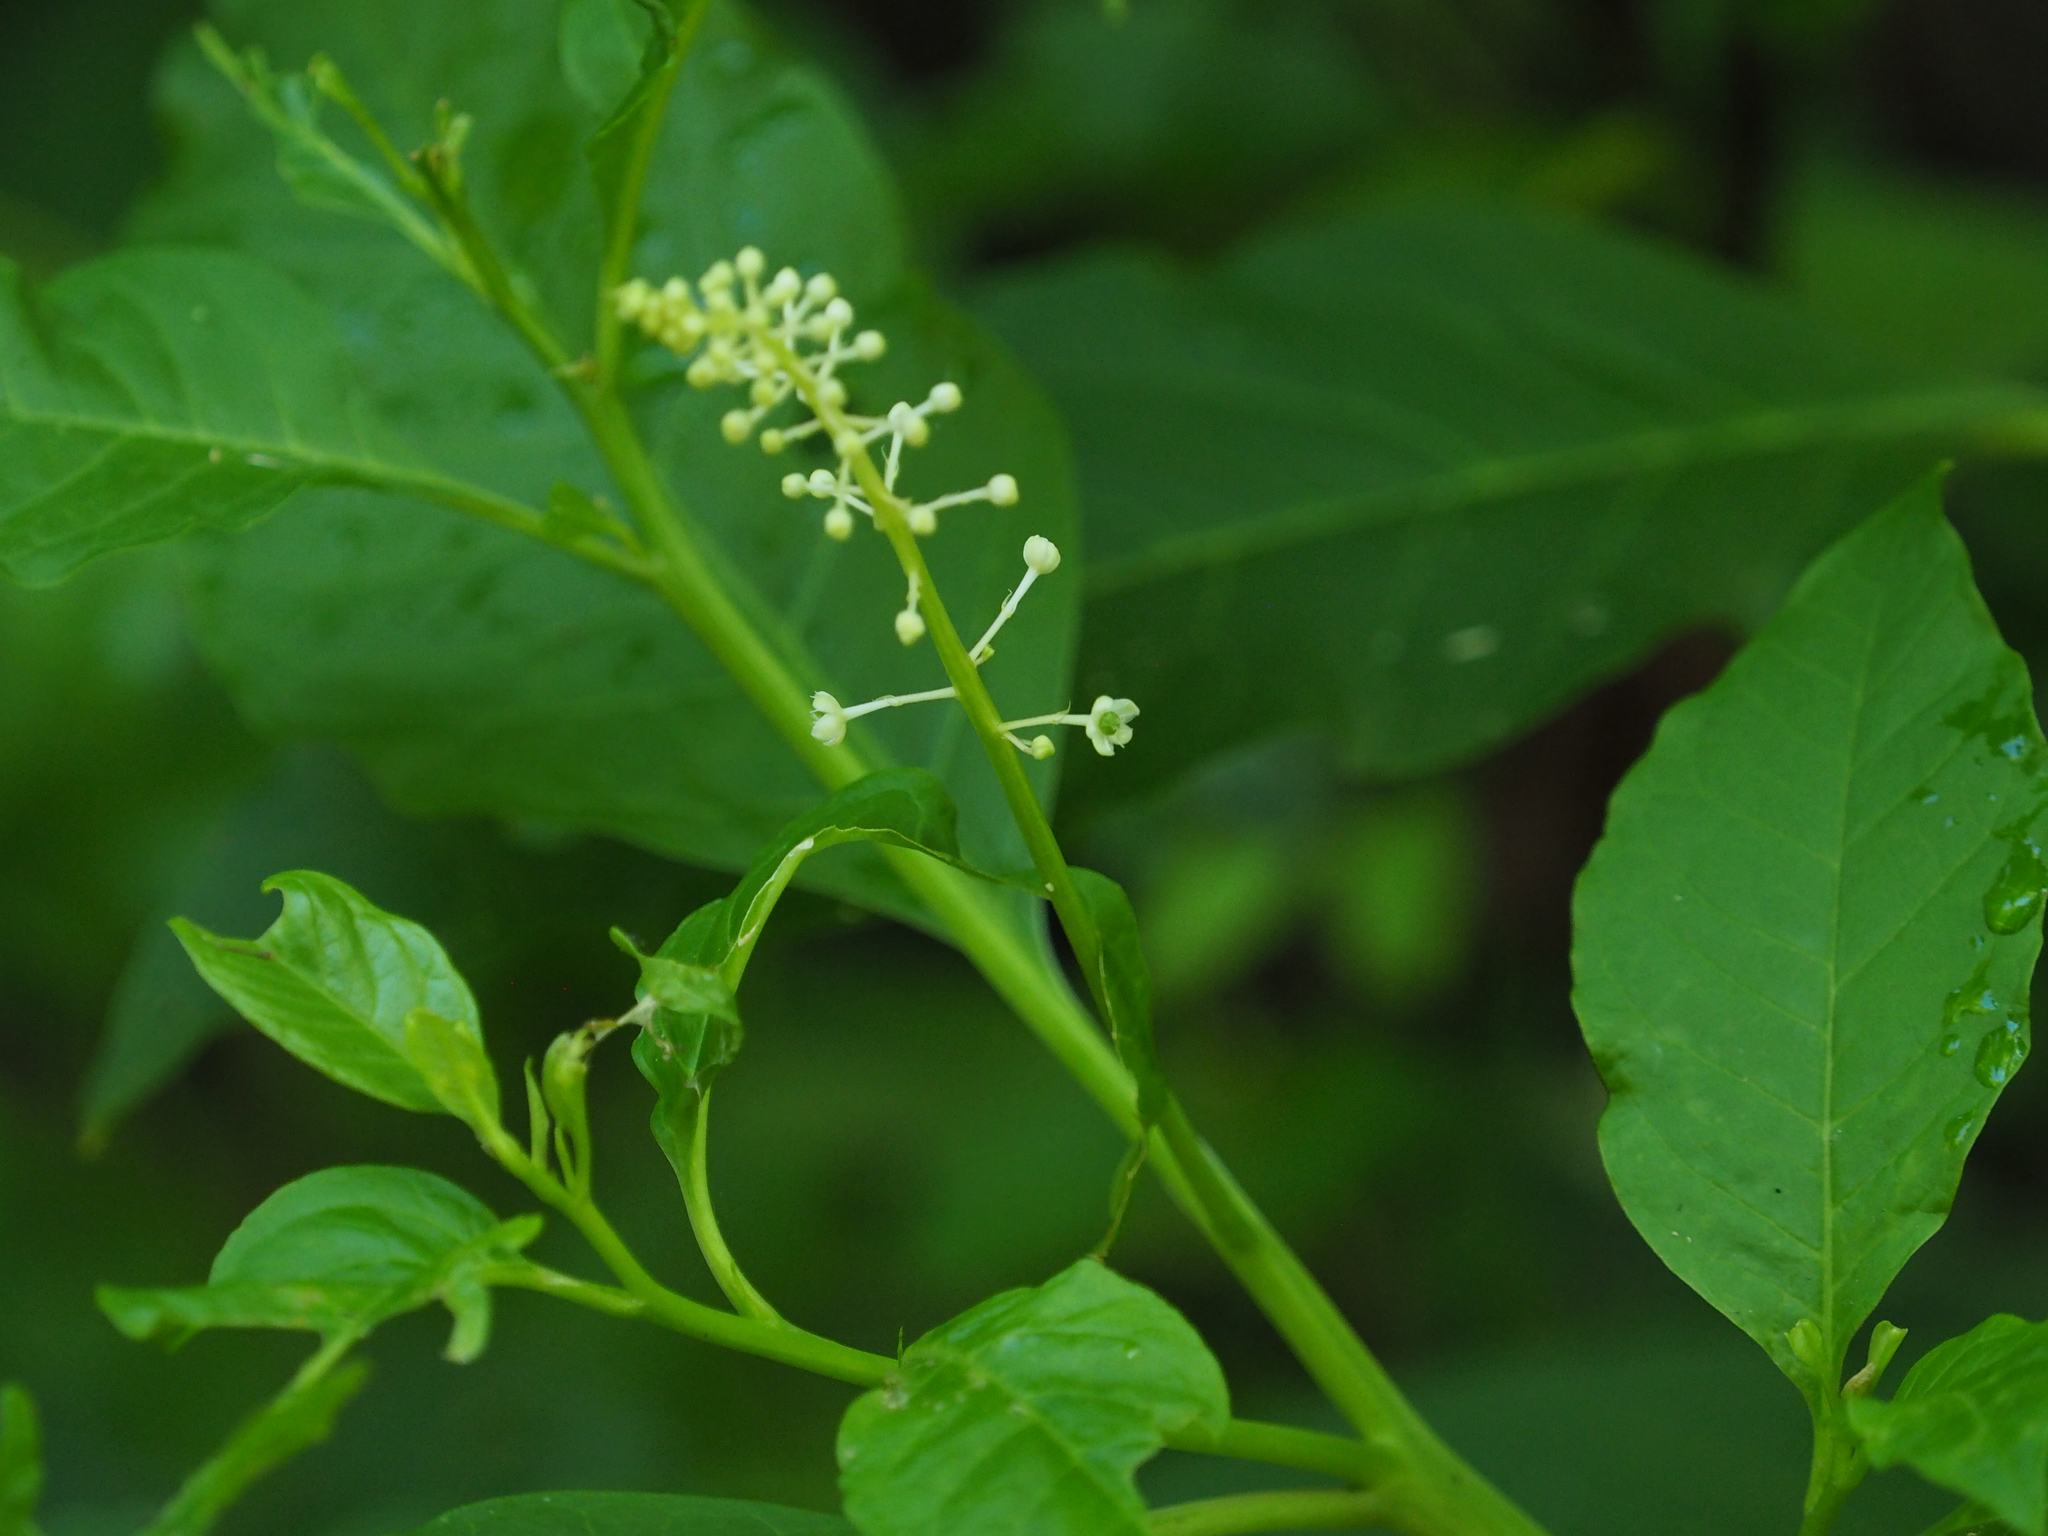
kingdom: Plantae
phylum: Tracheophyta
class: Magnoliopsida
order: Caryophyllales
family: Phytolaccaceae
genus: Phytolacca
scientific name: Phytolacca americana
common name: American pokeweed
